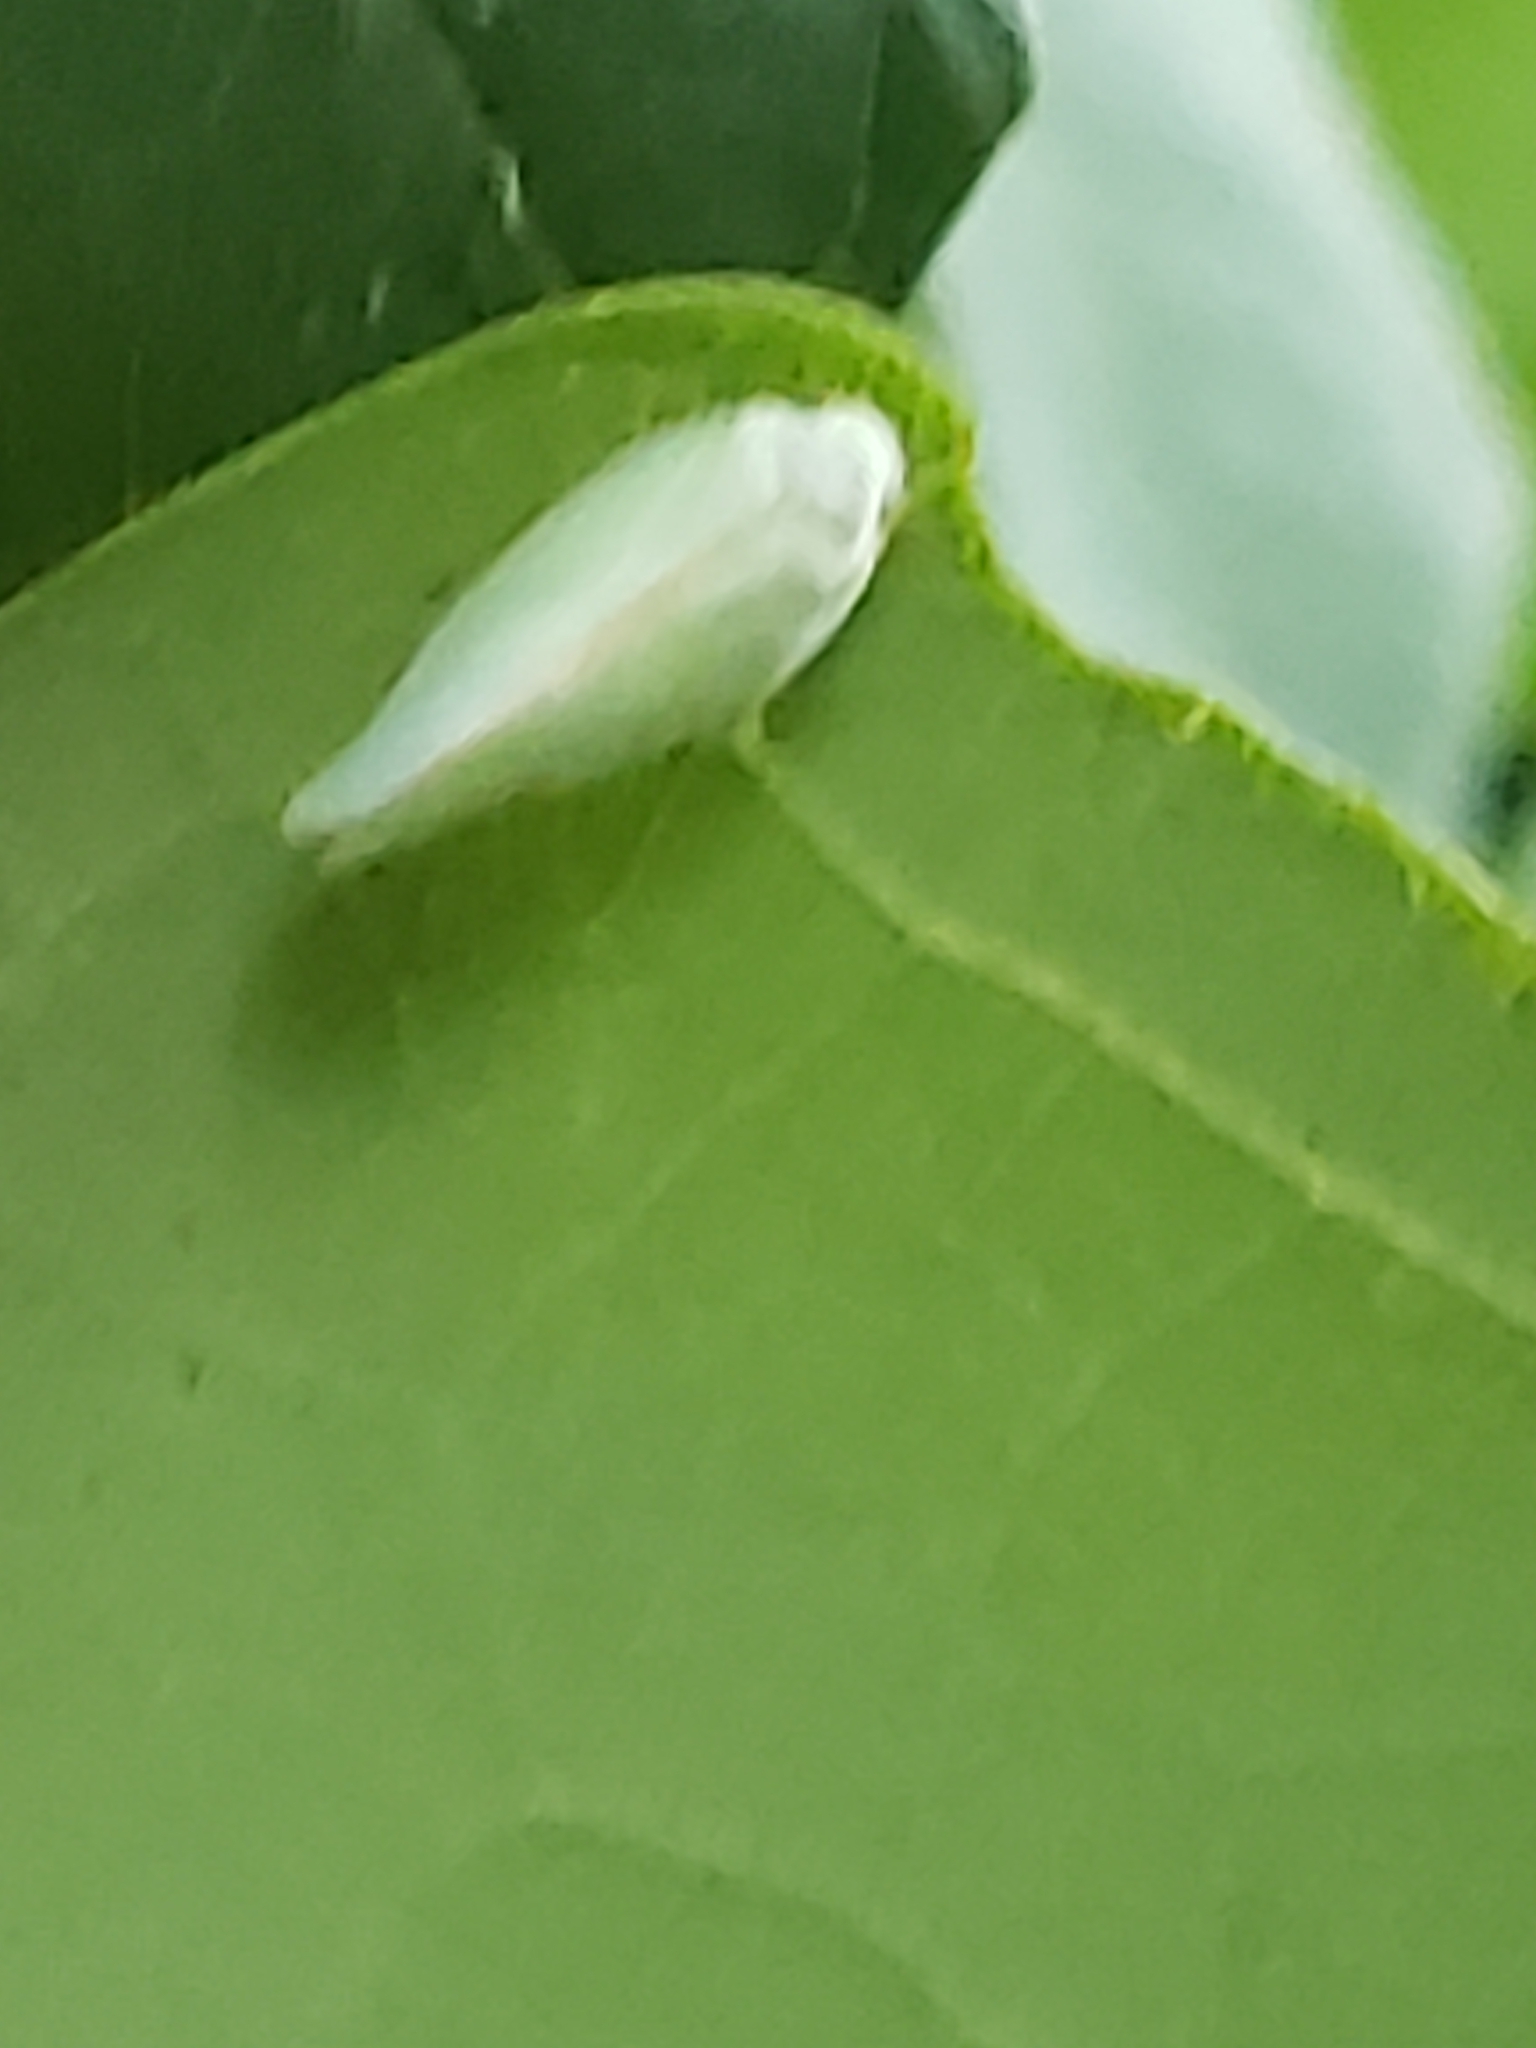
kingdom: Animalia
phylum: Arthropoda
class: Insecta
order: Hemiptera
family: Flatidae
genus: Ormenoides
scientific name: Ormenoides venusta
